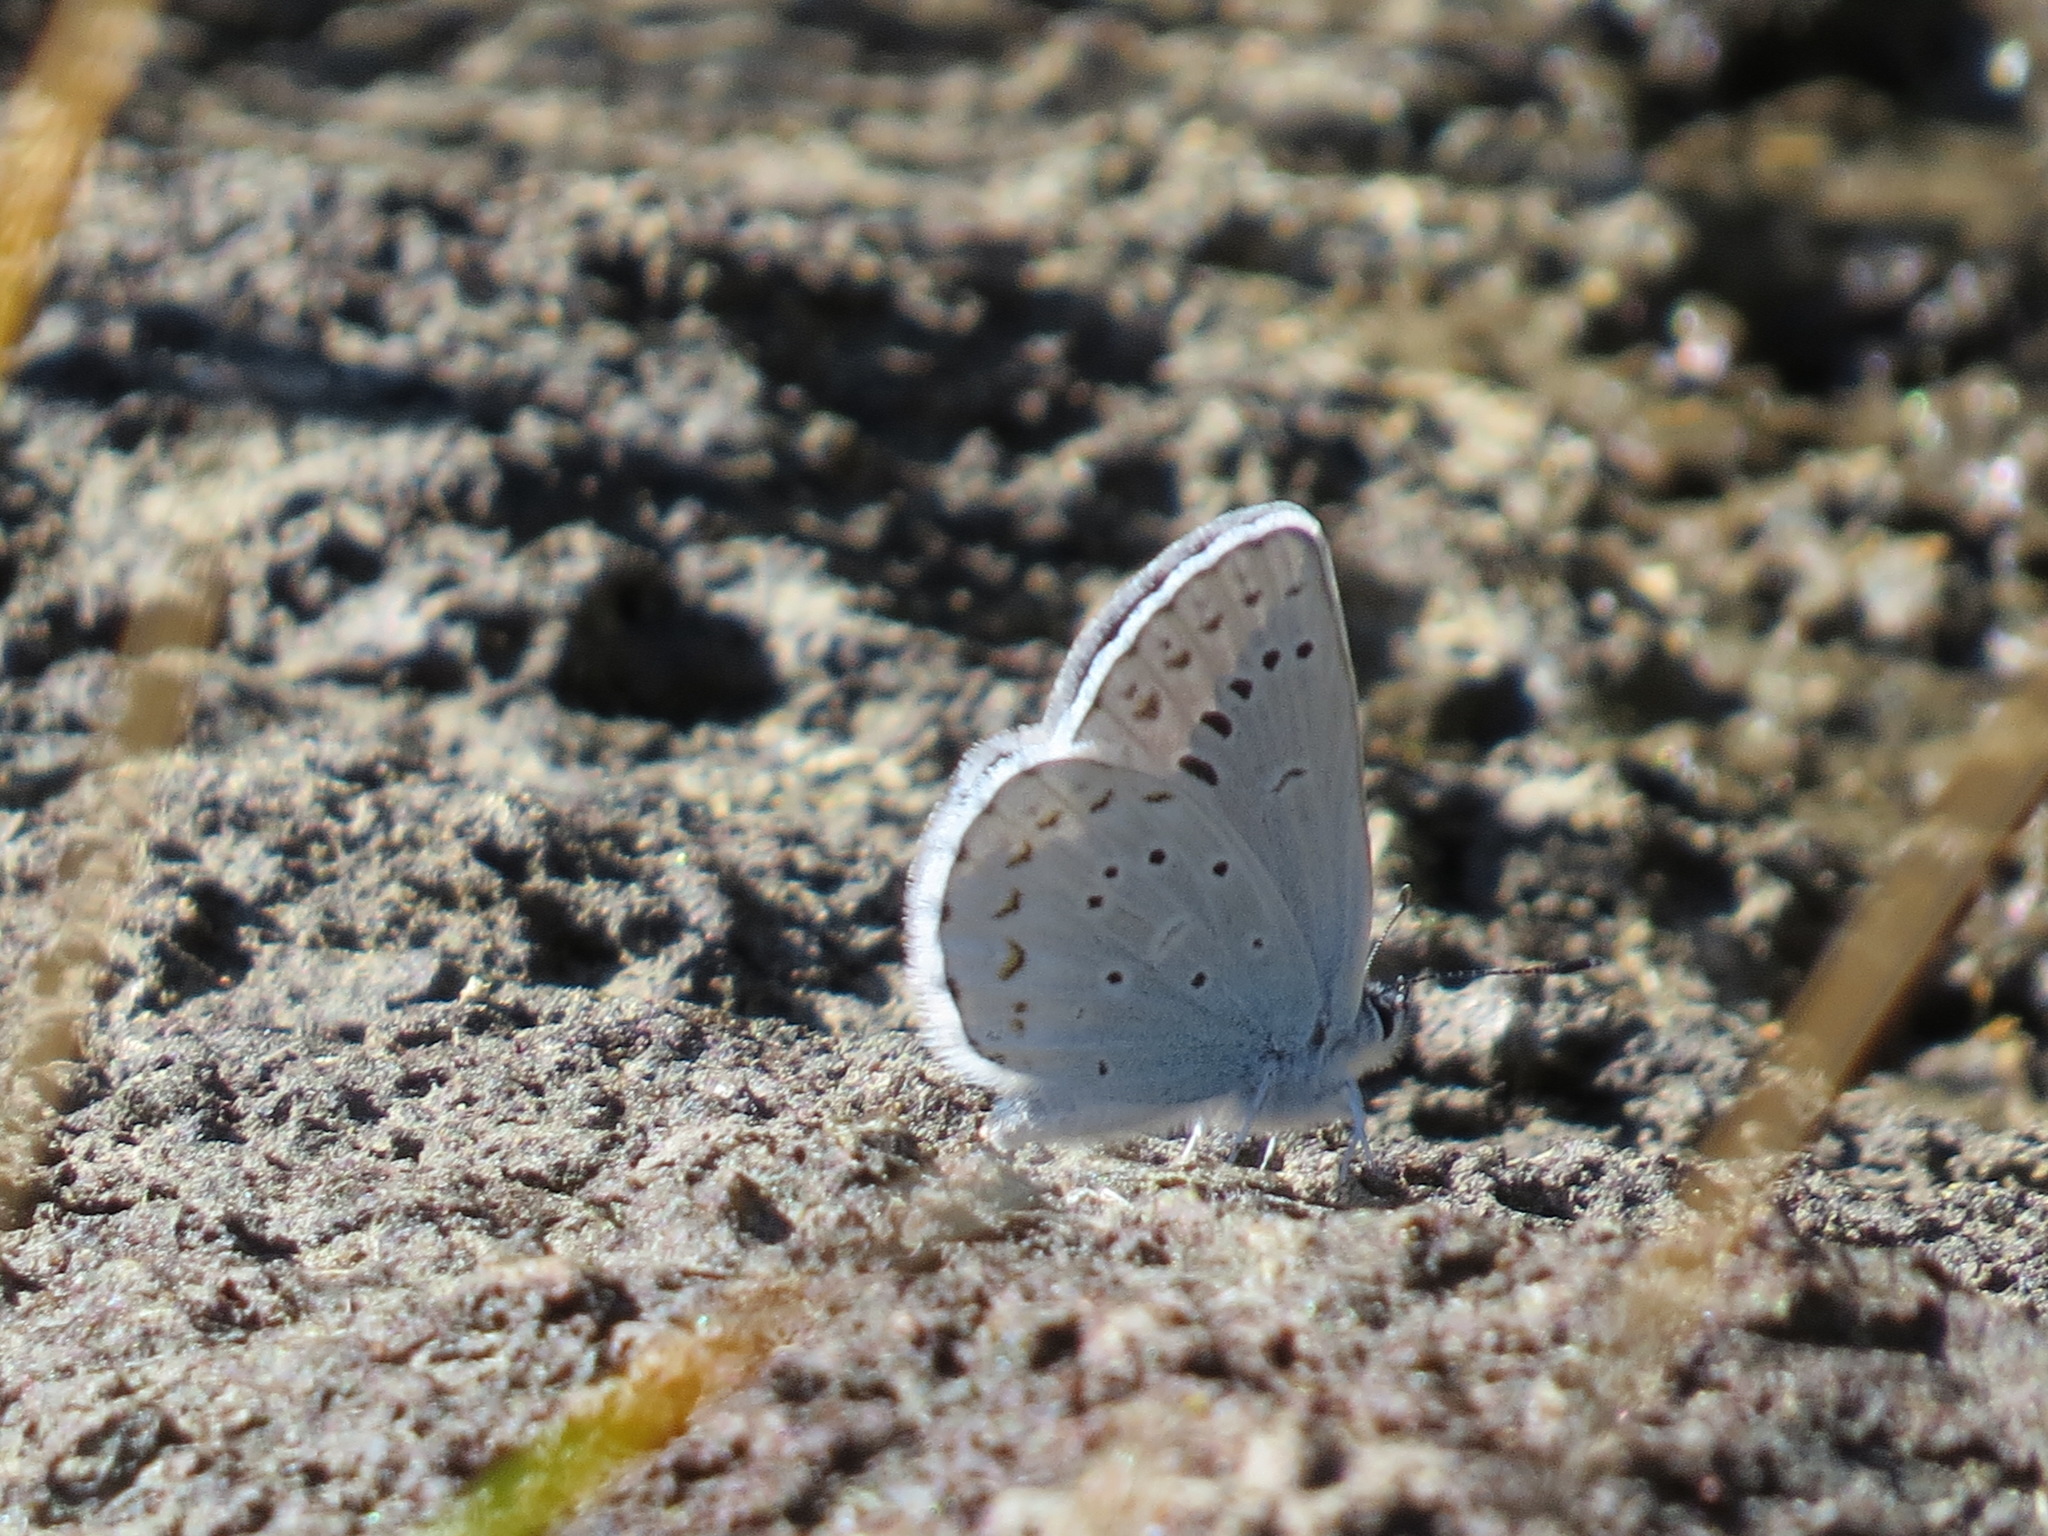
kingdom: Animalia
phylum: Arthropoda
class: Insecta
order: Lepidoptera
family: Lycaenidae
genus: Lycaeides
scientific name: Lycaeides anna
